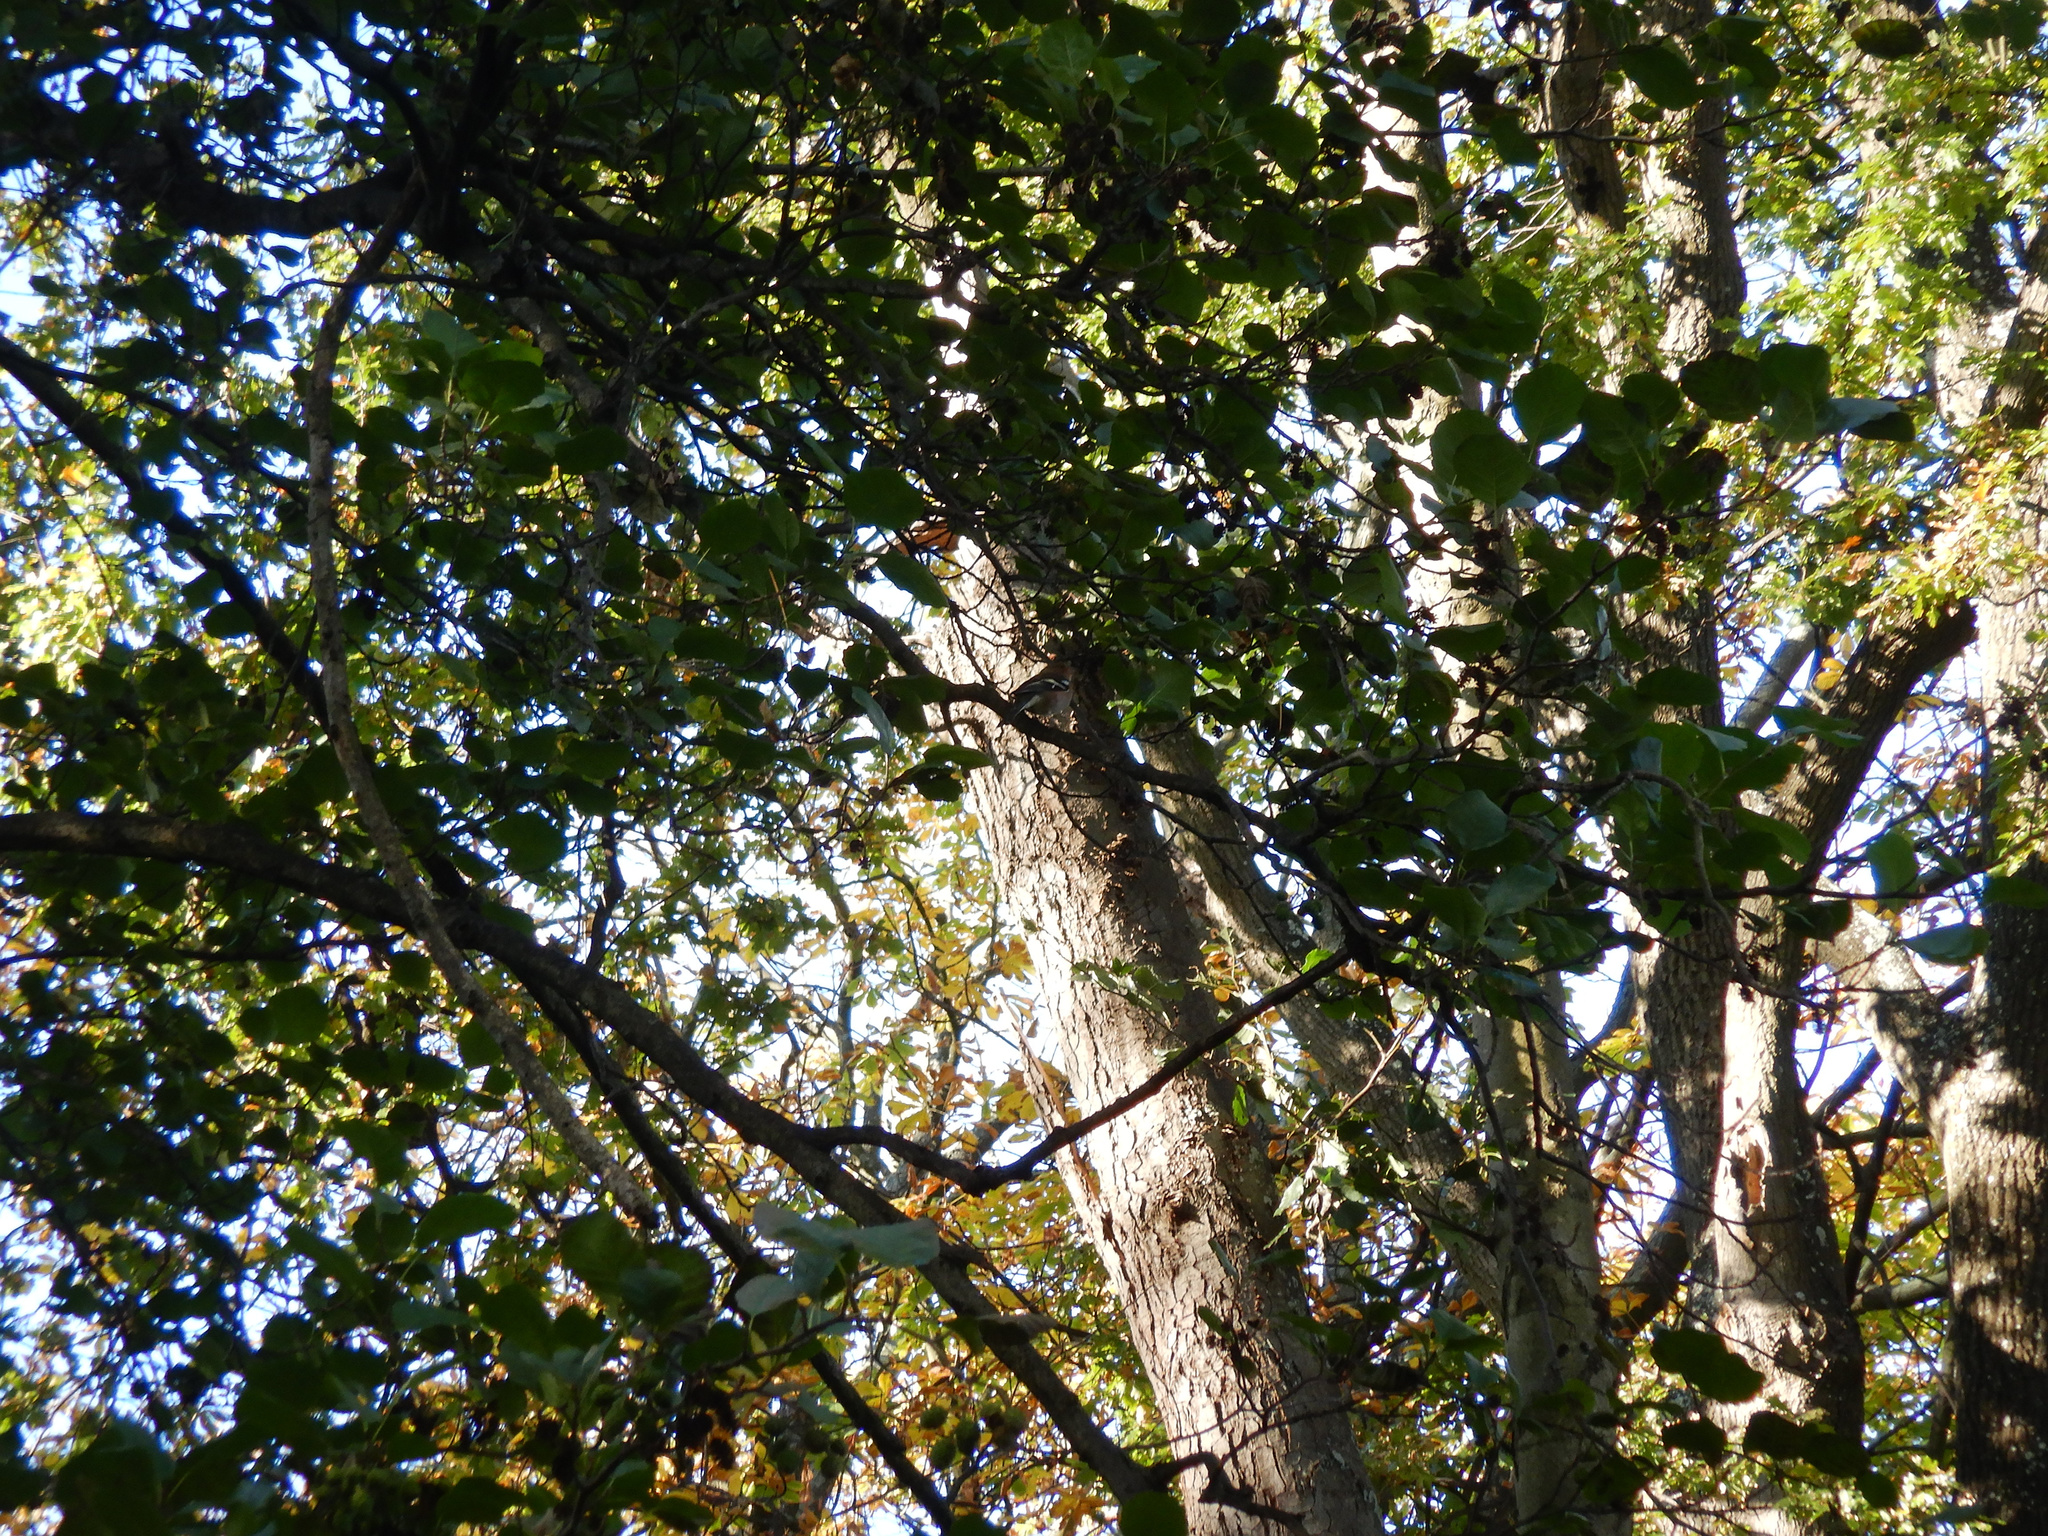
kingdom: Animalia
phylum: Chordata
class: Aves
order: Passeriformes
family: Fringillidae
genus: Fringilla
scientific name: Fringilla coelebs
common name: Common chaffinch
